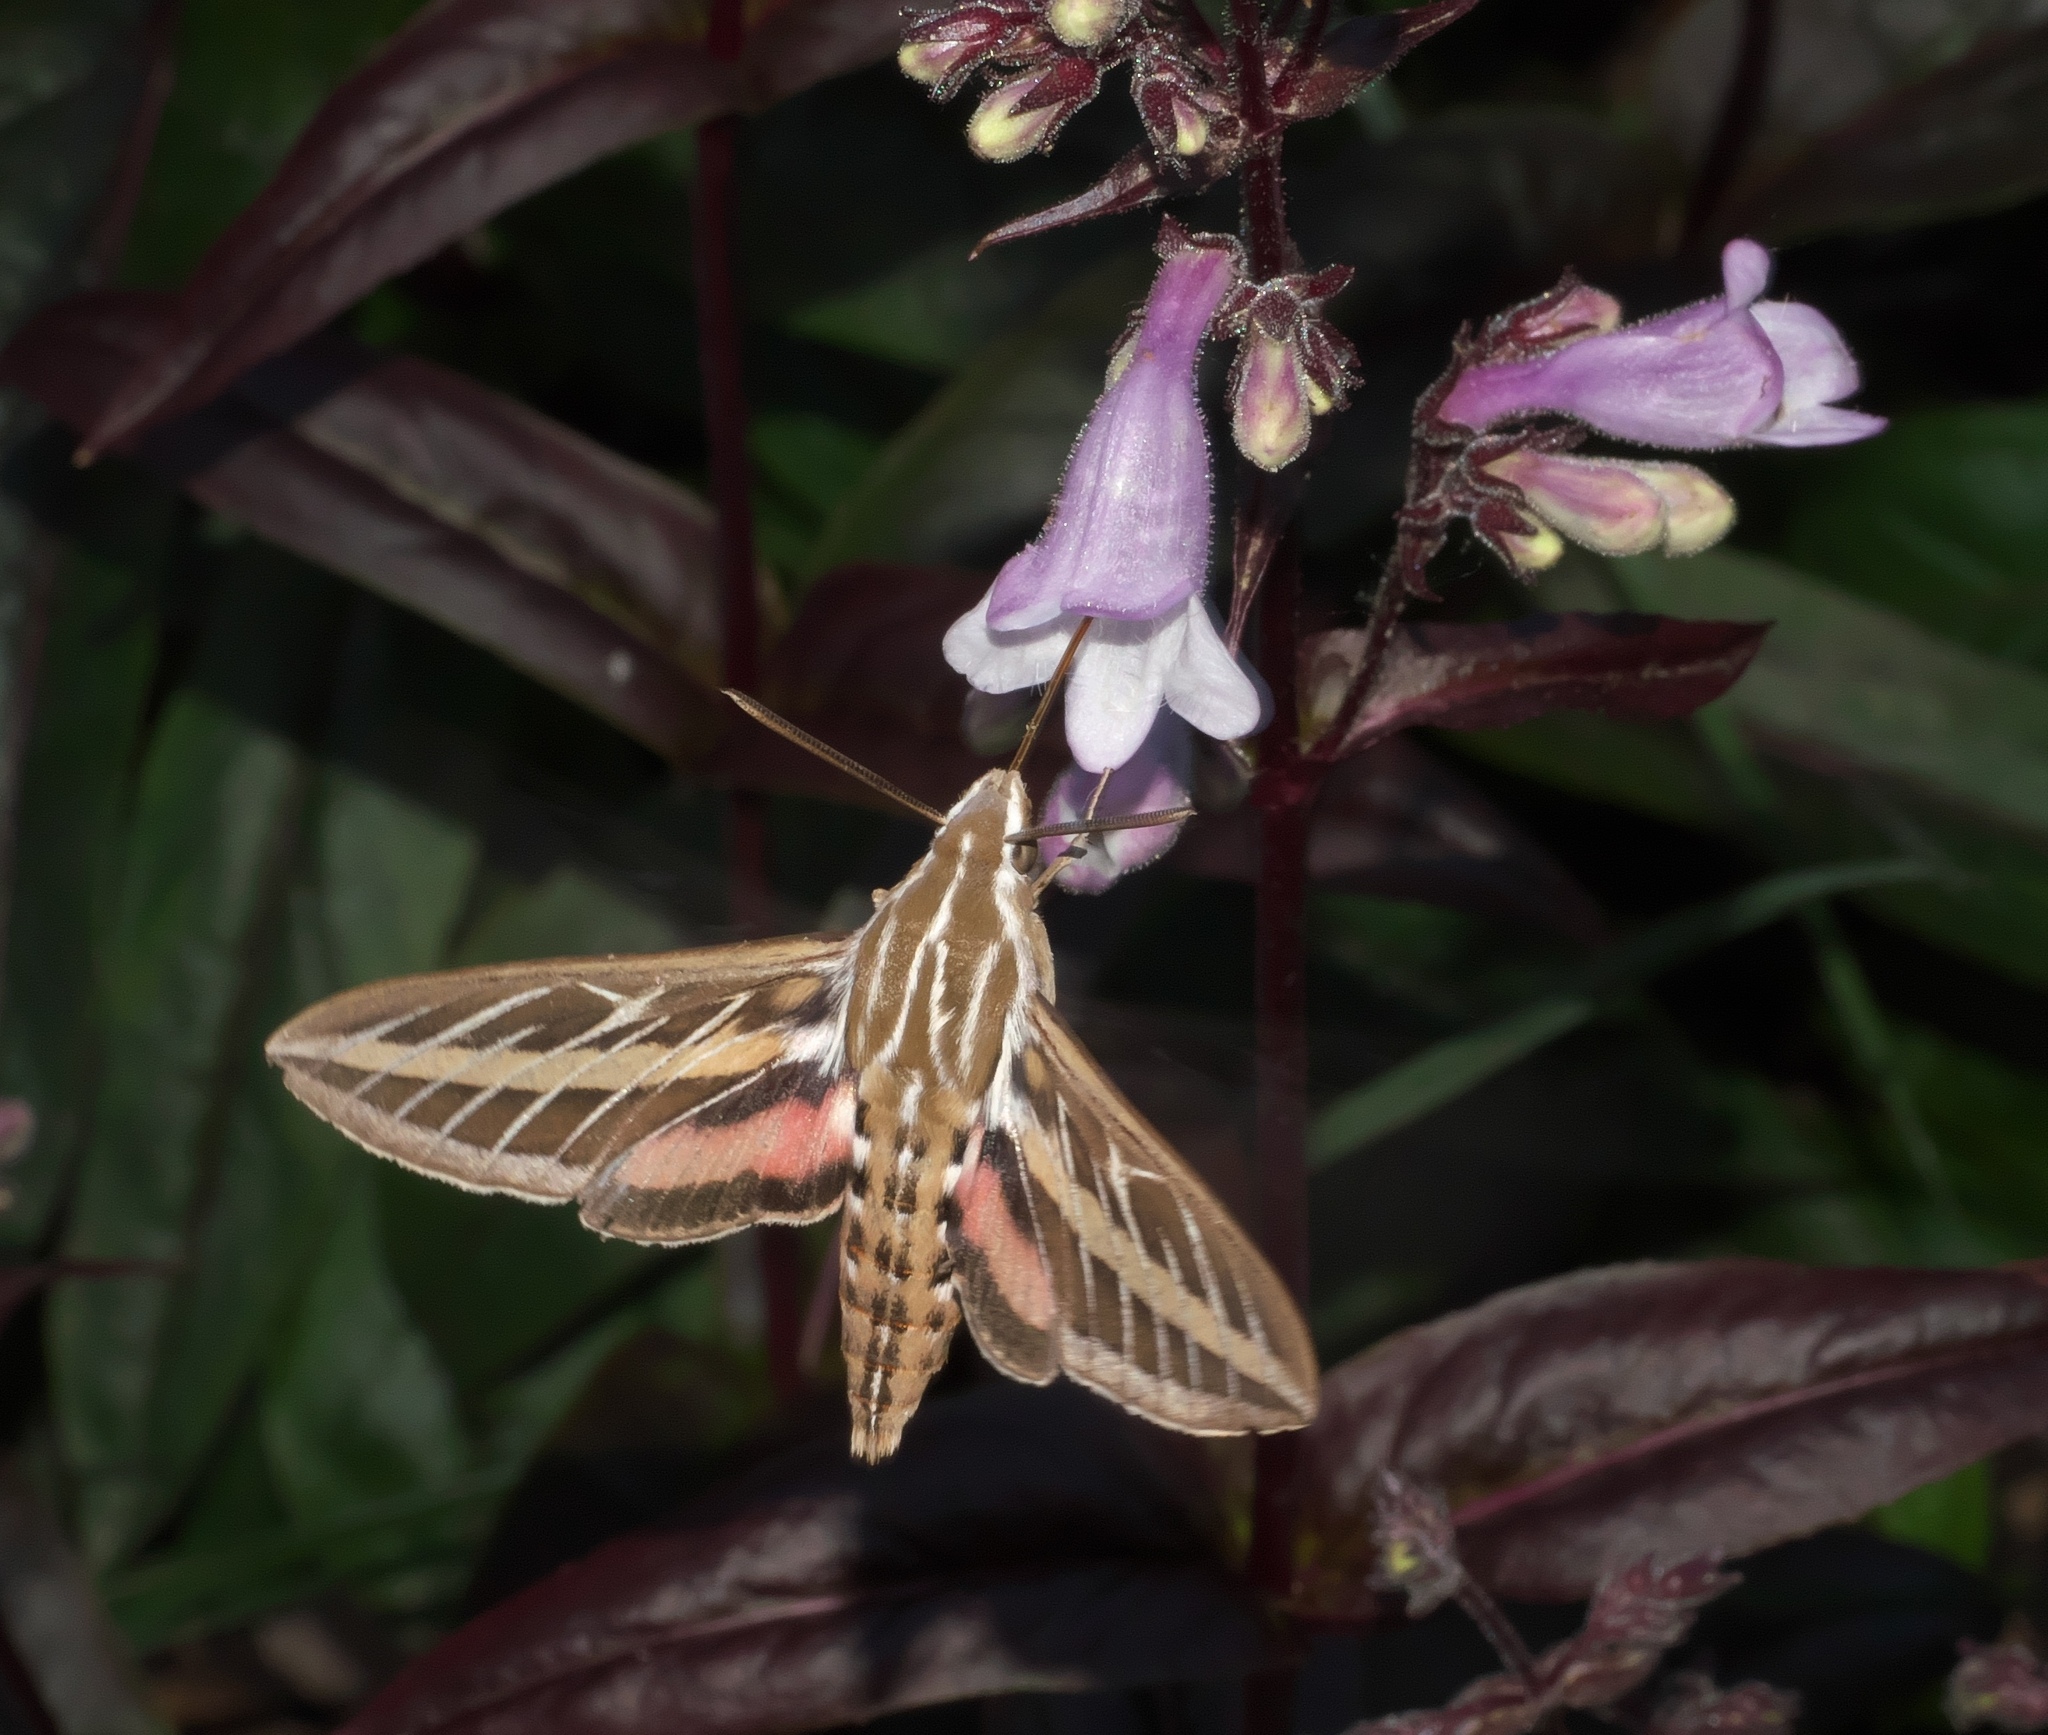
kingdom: Animalia
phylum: Arthropoda
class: Insecta
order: Lepidoptera
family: Sphingidae
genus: Hyles
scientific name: Hyles lineata
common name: White-lined sphinx
